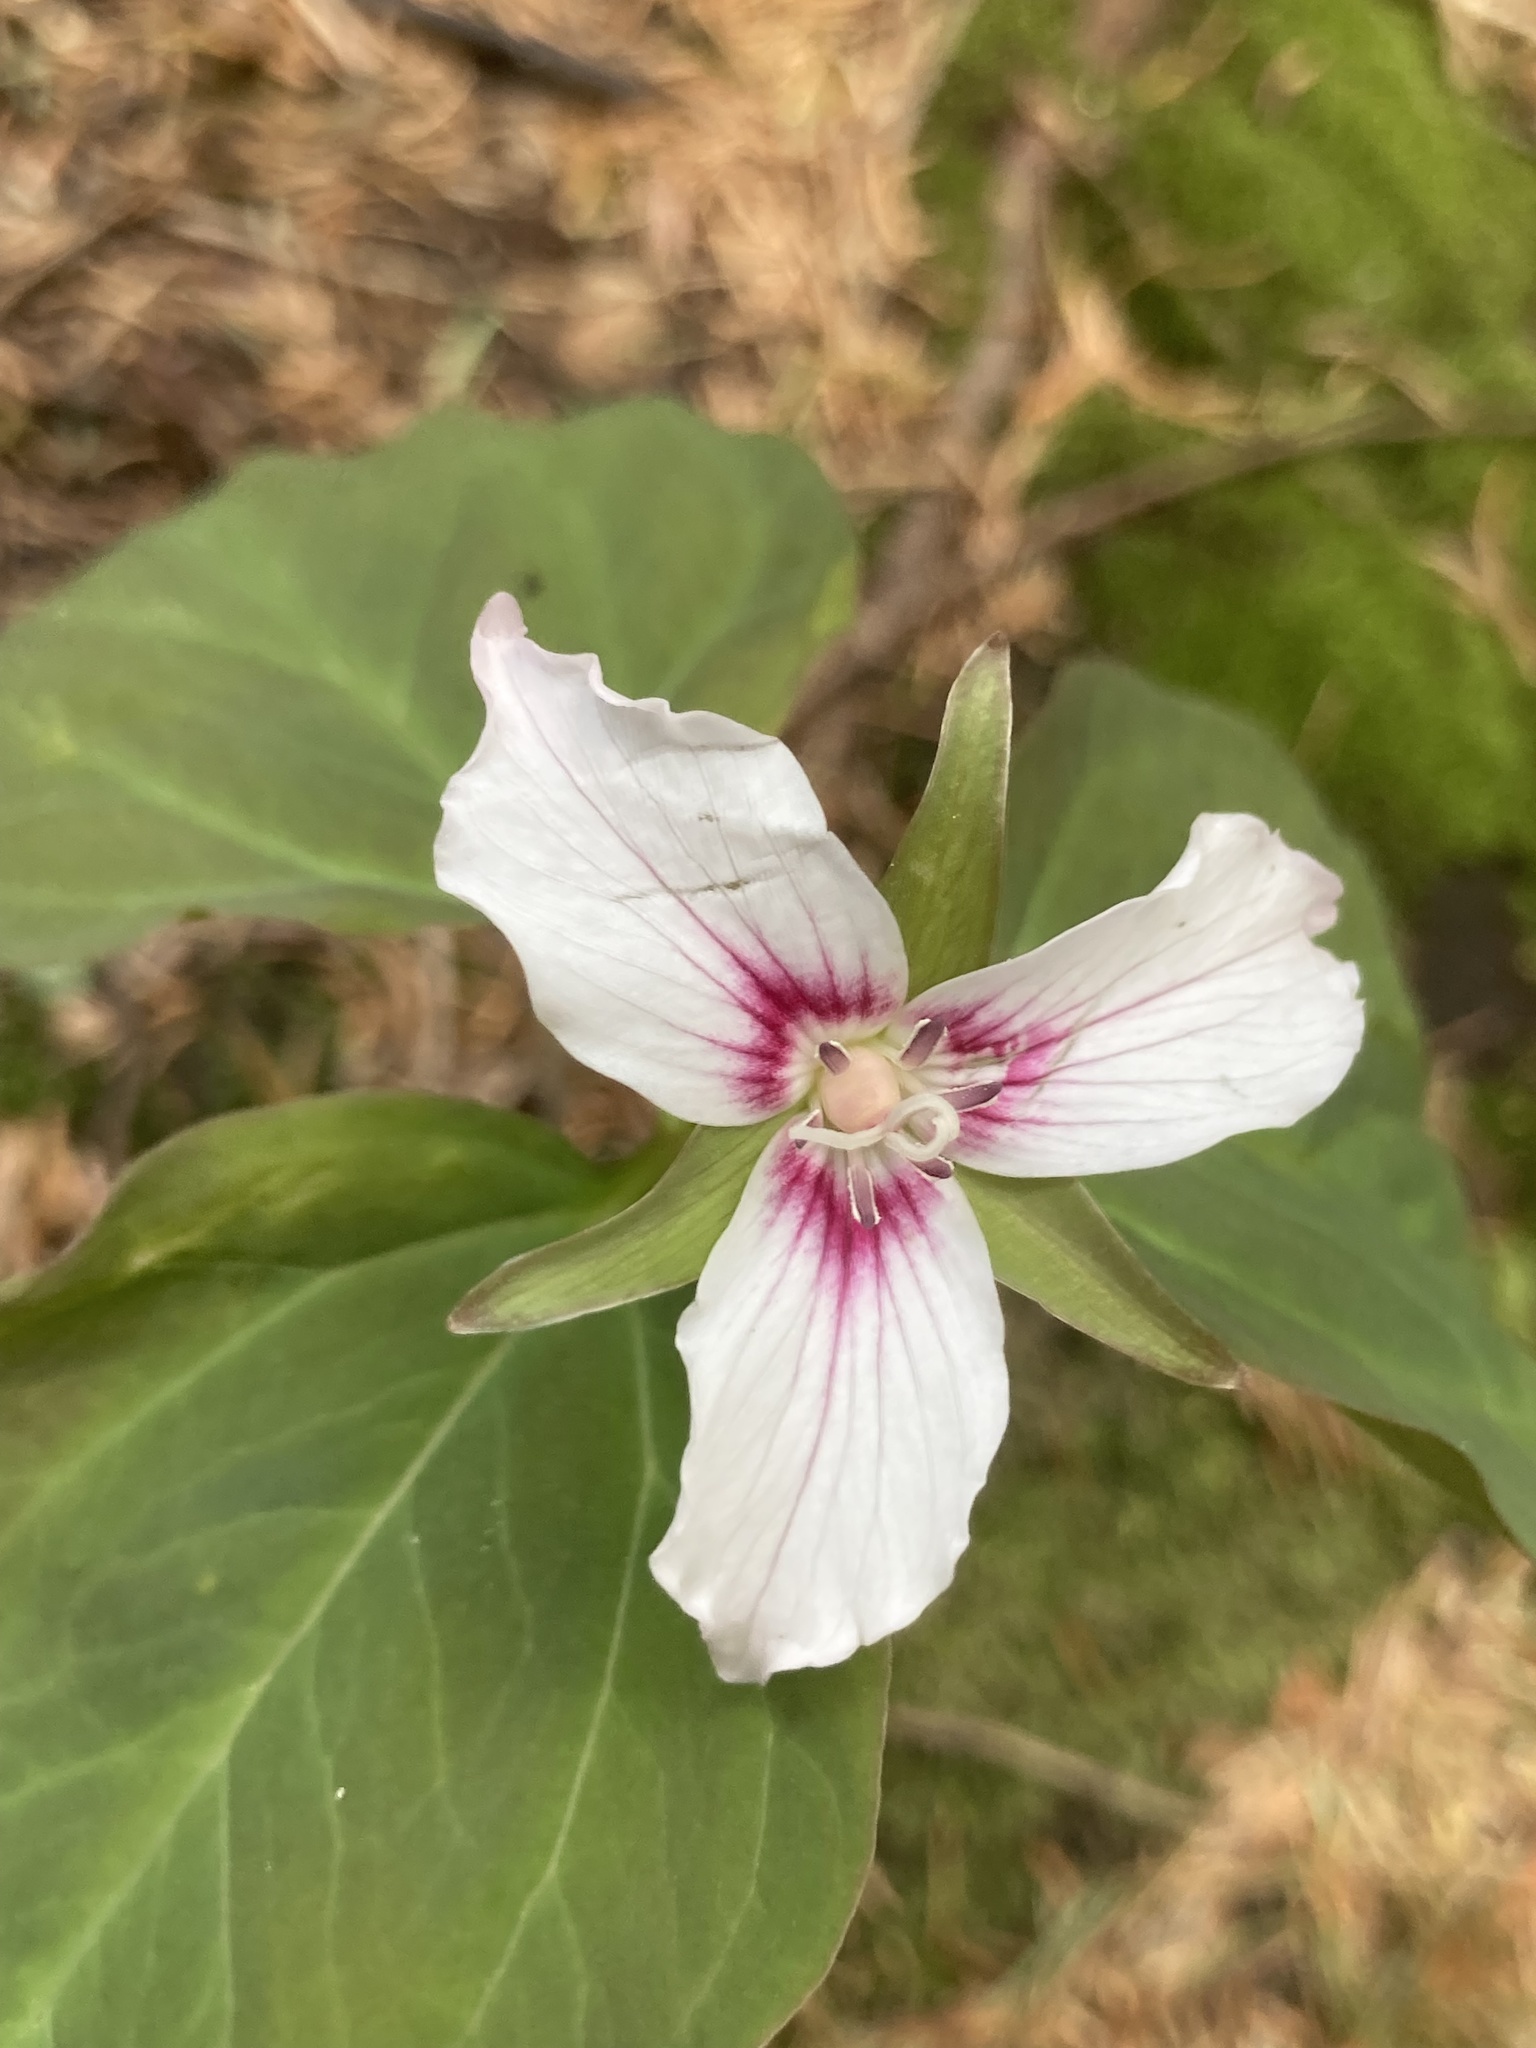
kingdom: Plantae
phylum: Tracheophyta
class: Liliopsida
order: Liliales
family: Melanthiaceae
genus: Trillium
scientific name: Trillium undulatum
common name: Paint trillium
